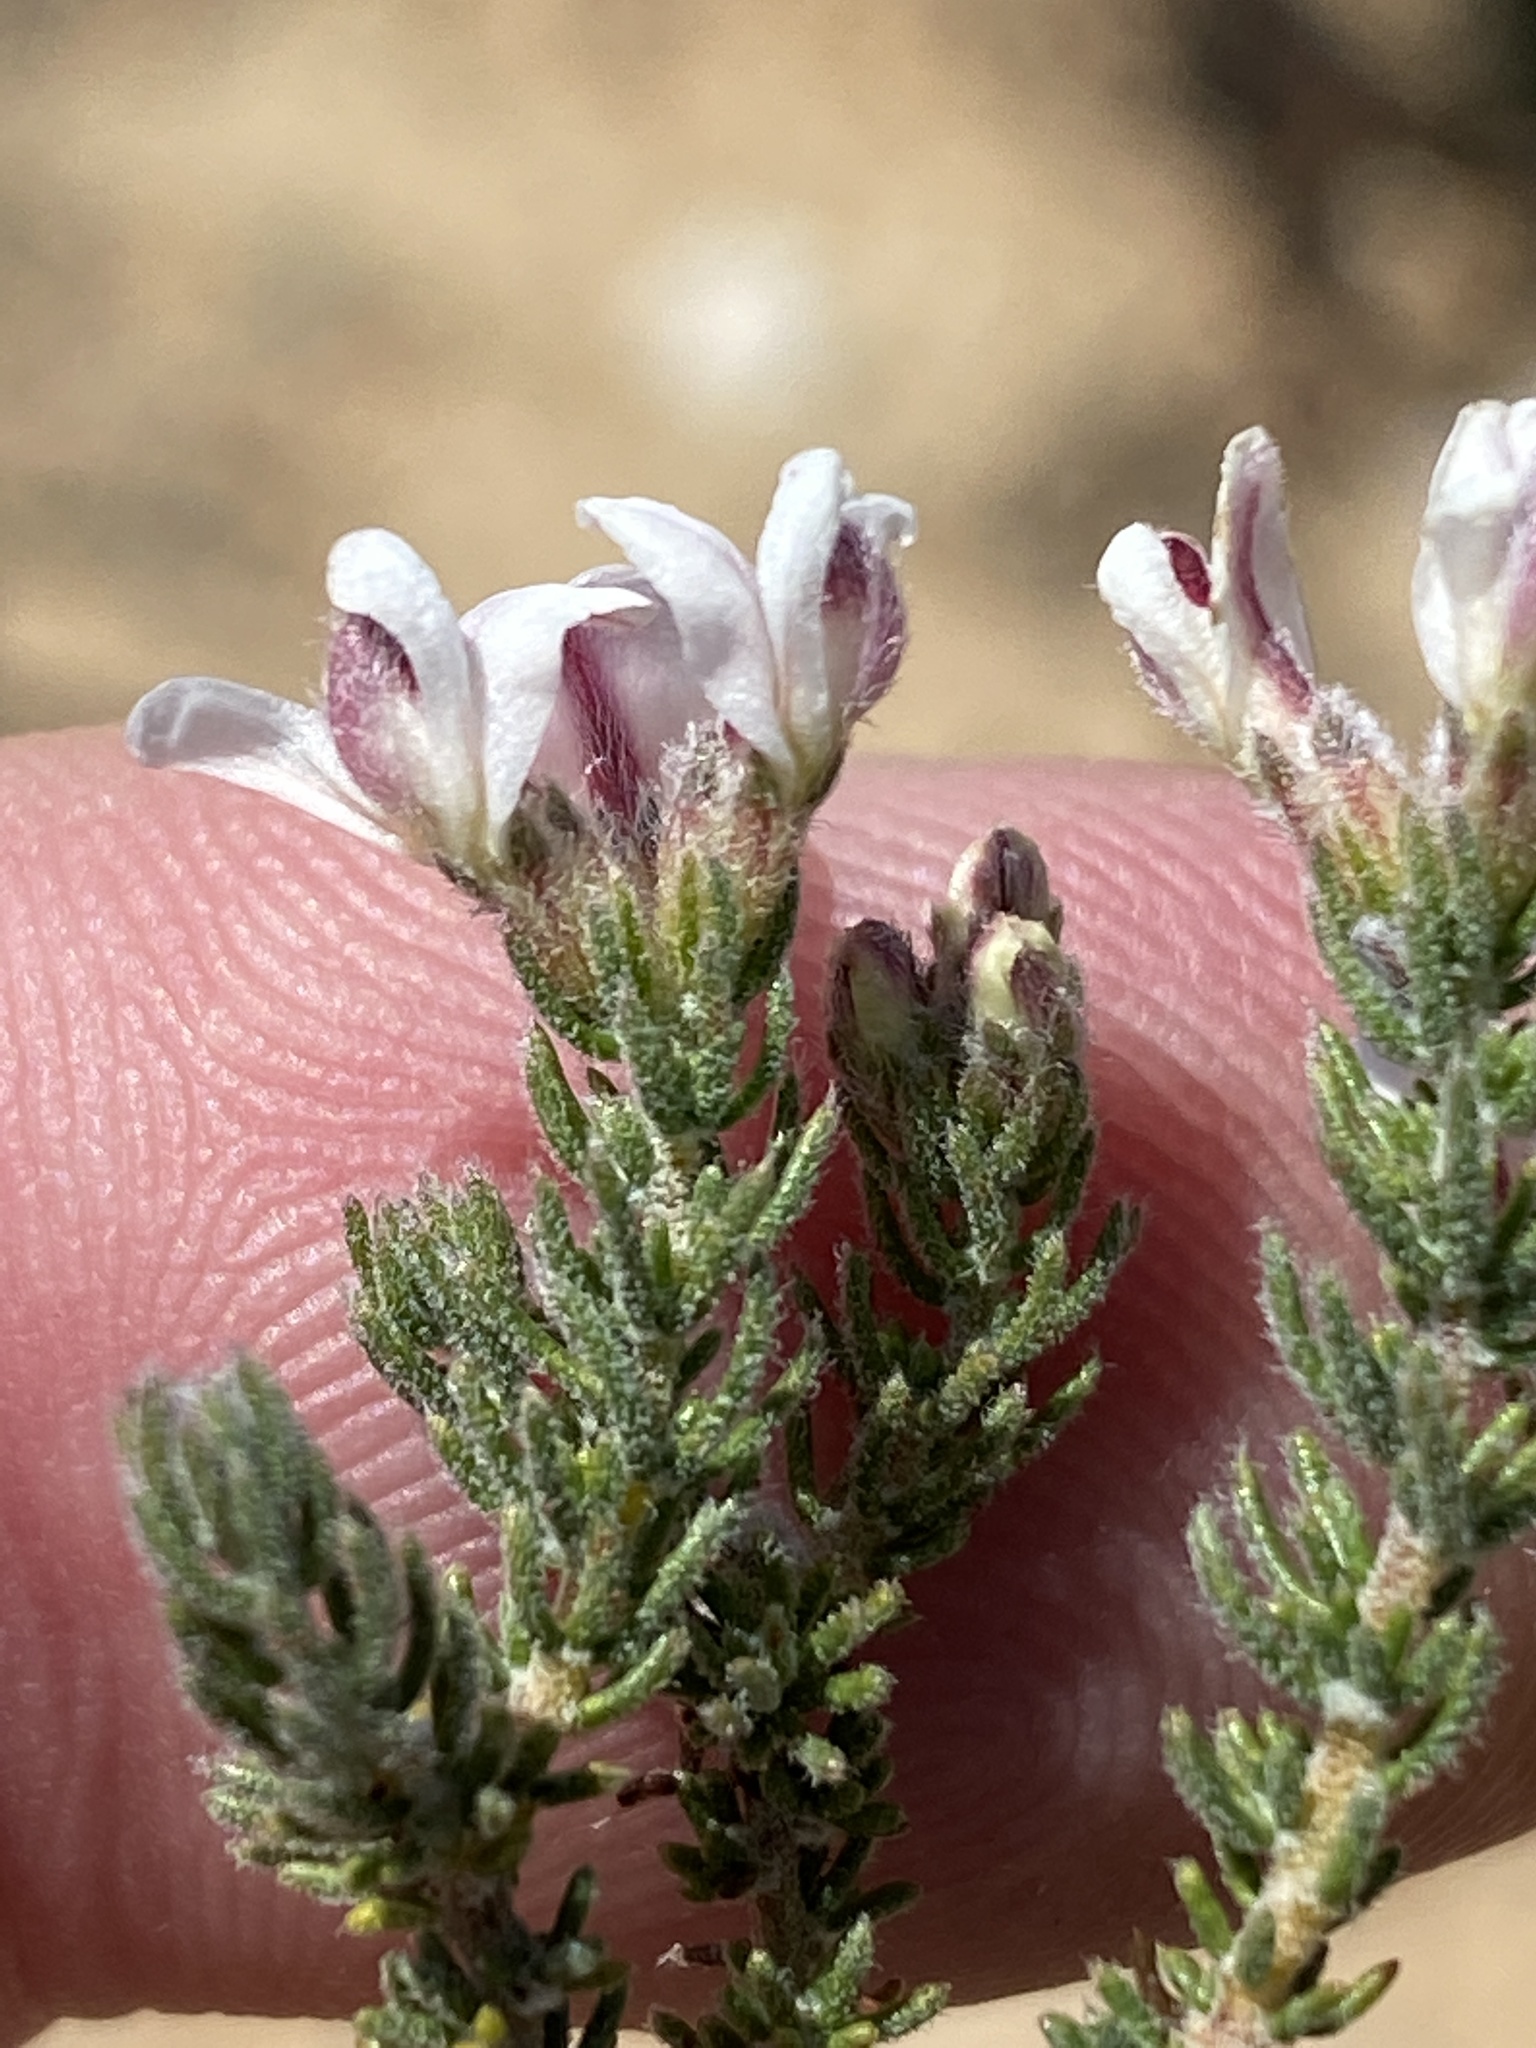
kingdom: Plantae
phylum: Tracheophyta
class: Magnoliopsida
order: Fabales
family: Fabaceae
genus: Aspalathus
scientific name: Aspalathus submissa
